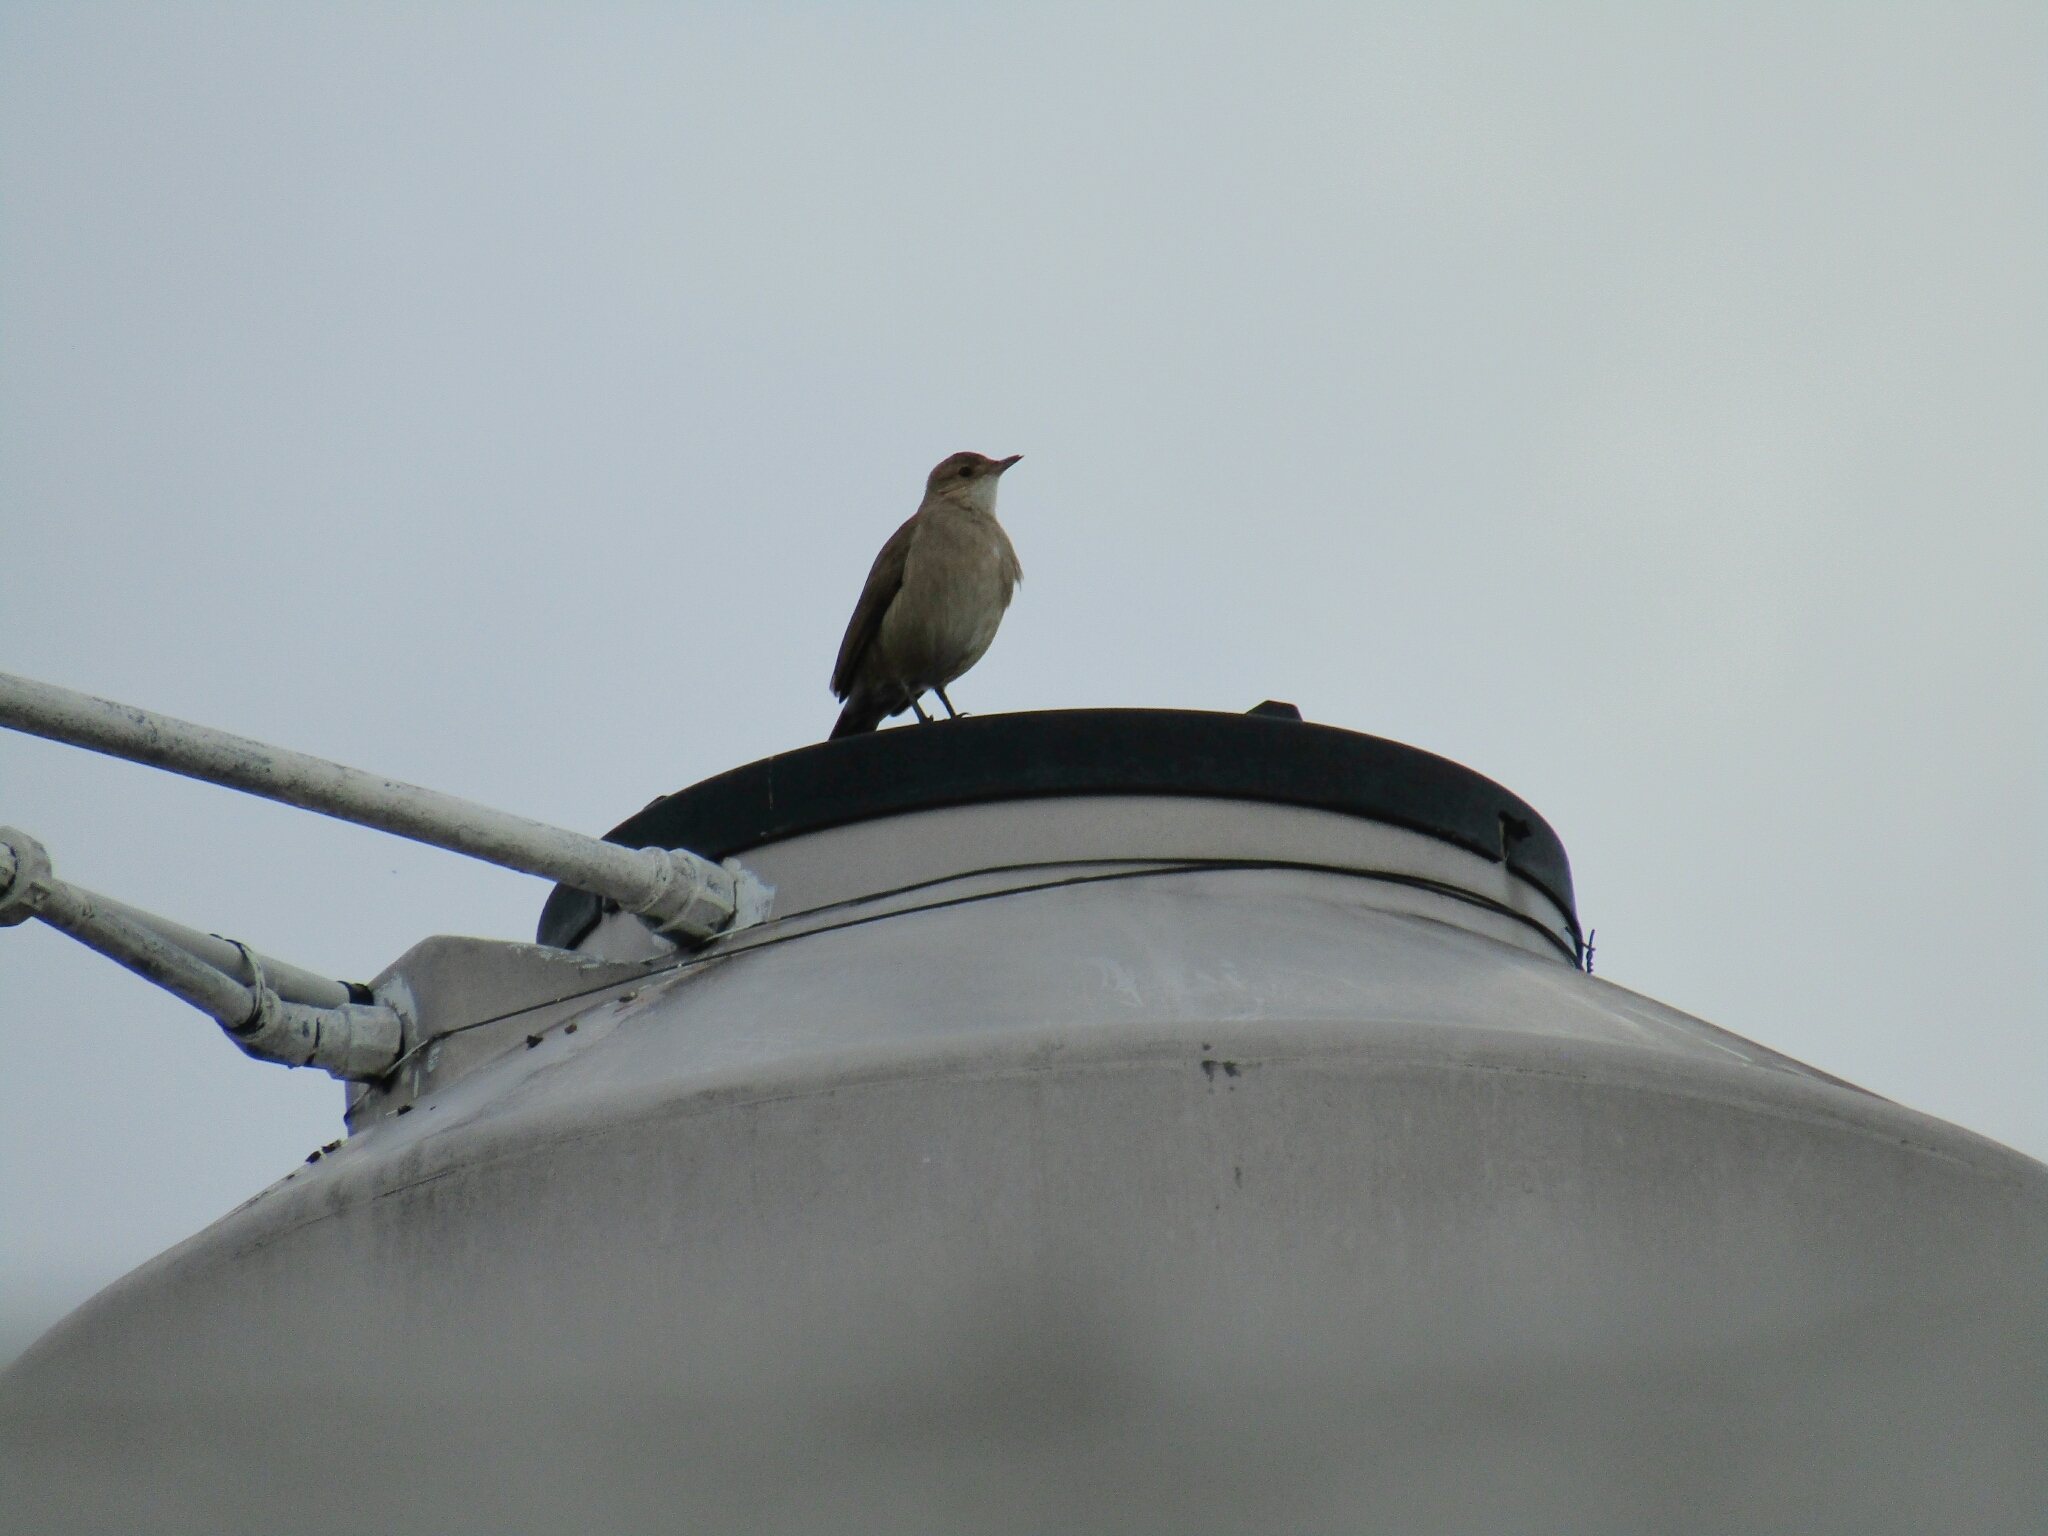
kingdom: Animalia
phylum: Chordata
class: Aves
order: Passeriformes
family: Furnariidae
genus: Furnarius
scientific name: Furnarius rufus
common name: Rufous hornero
